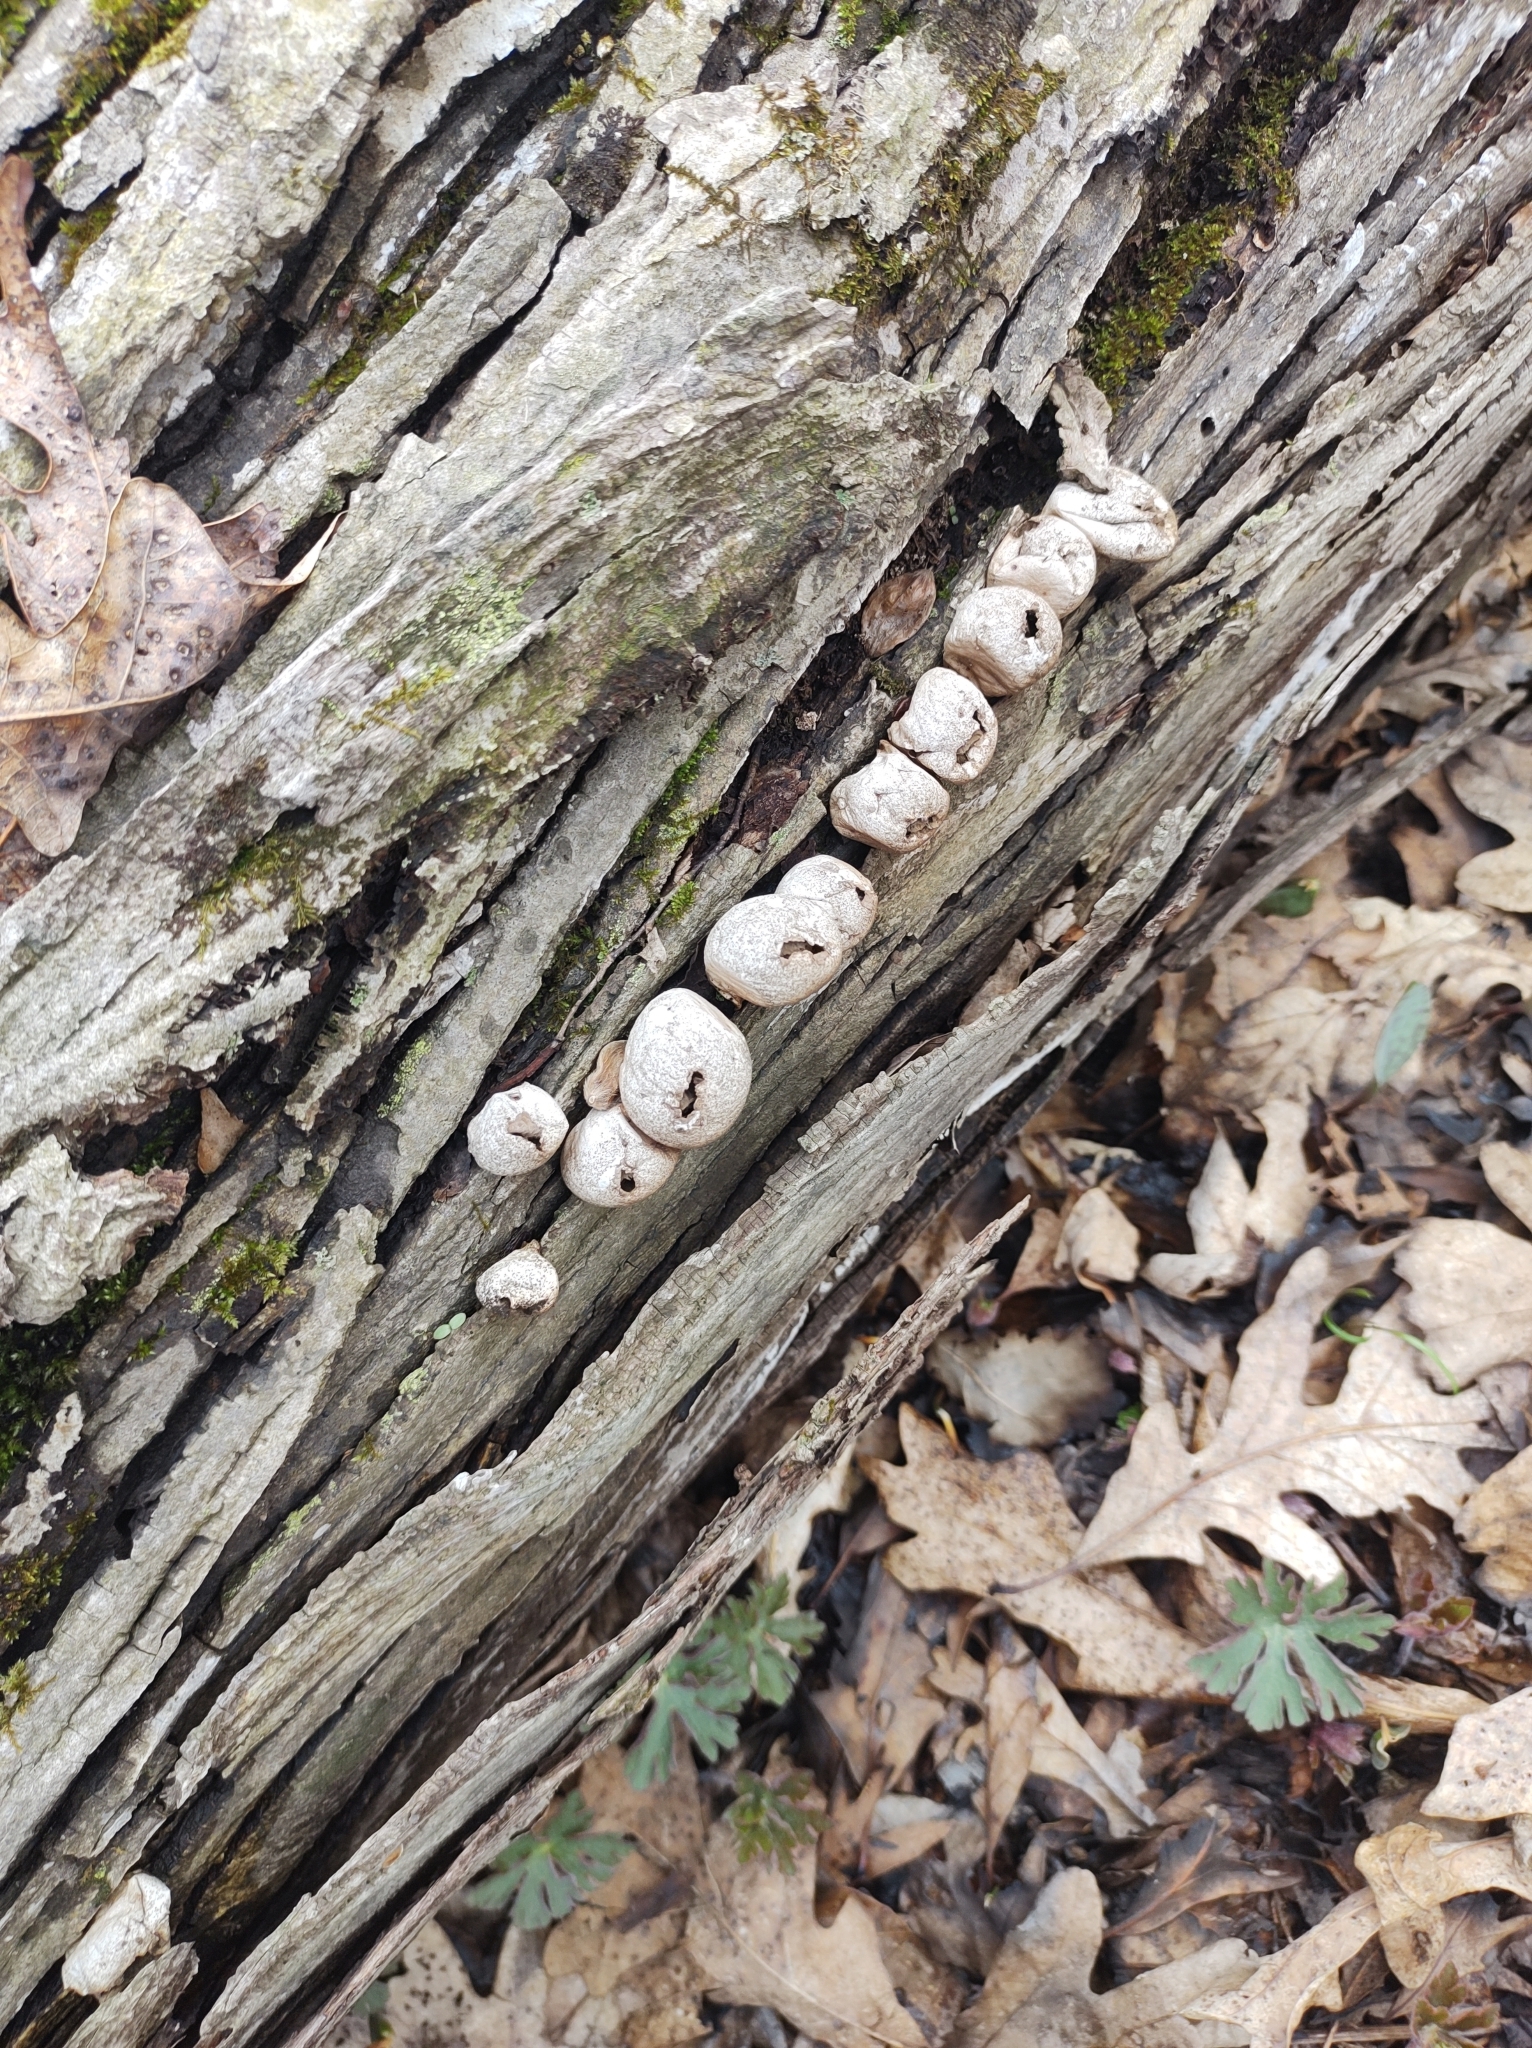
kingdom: Fungi
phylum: Basidiomycota
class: Agaricomycetes
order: Agaricales
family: Lycoperdaceae
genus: Apioperdon
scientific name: Apioperdon pyriforme
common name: Pear-shaped puffball
